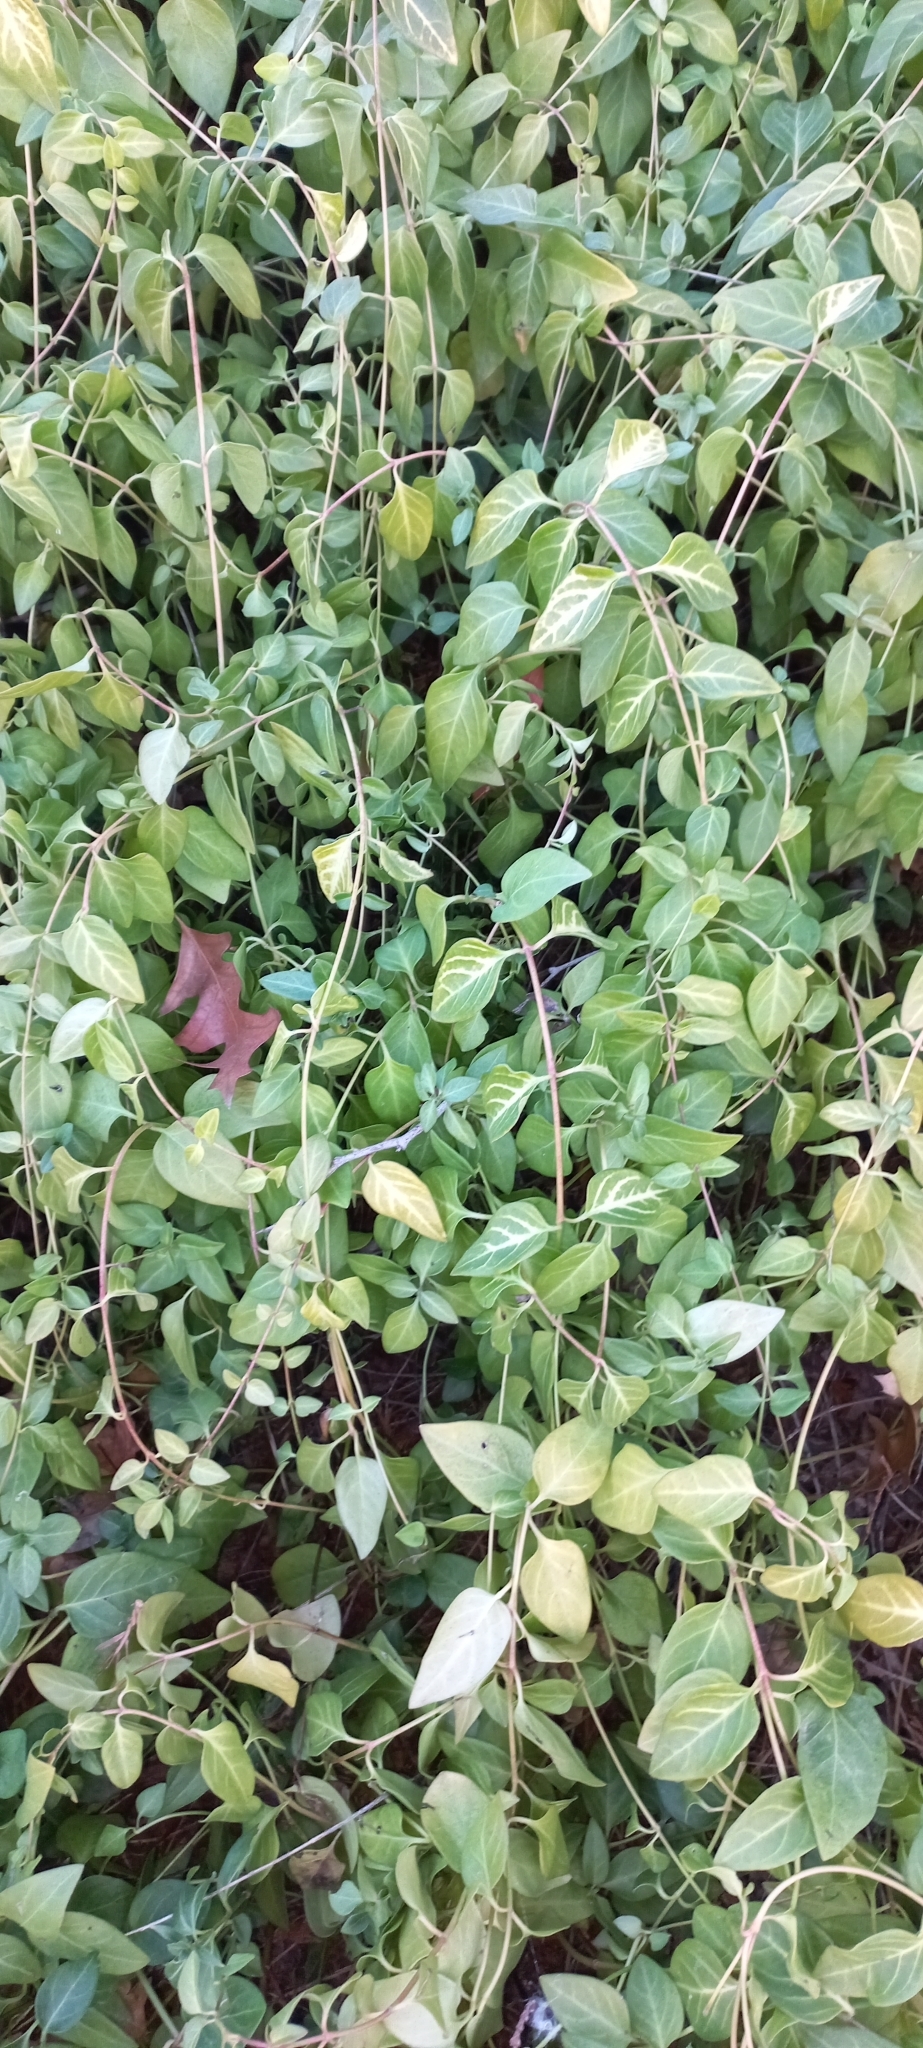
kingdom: Plantae
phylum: Tracheophyta
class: Magnoliopsida
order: Gentianales
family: Apocynaceae
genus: Vinca
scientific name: Vinca major
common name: Greater periwinkle
